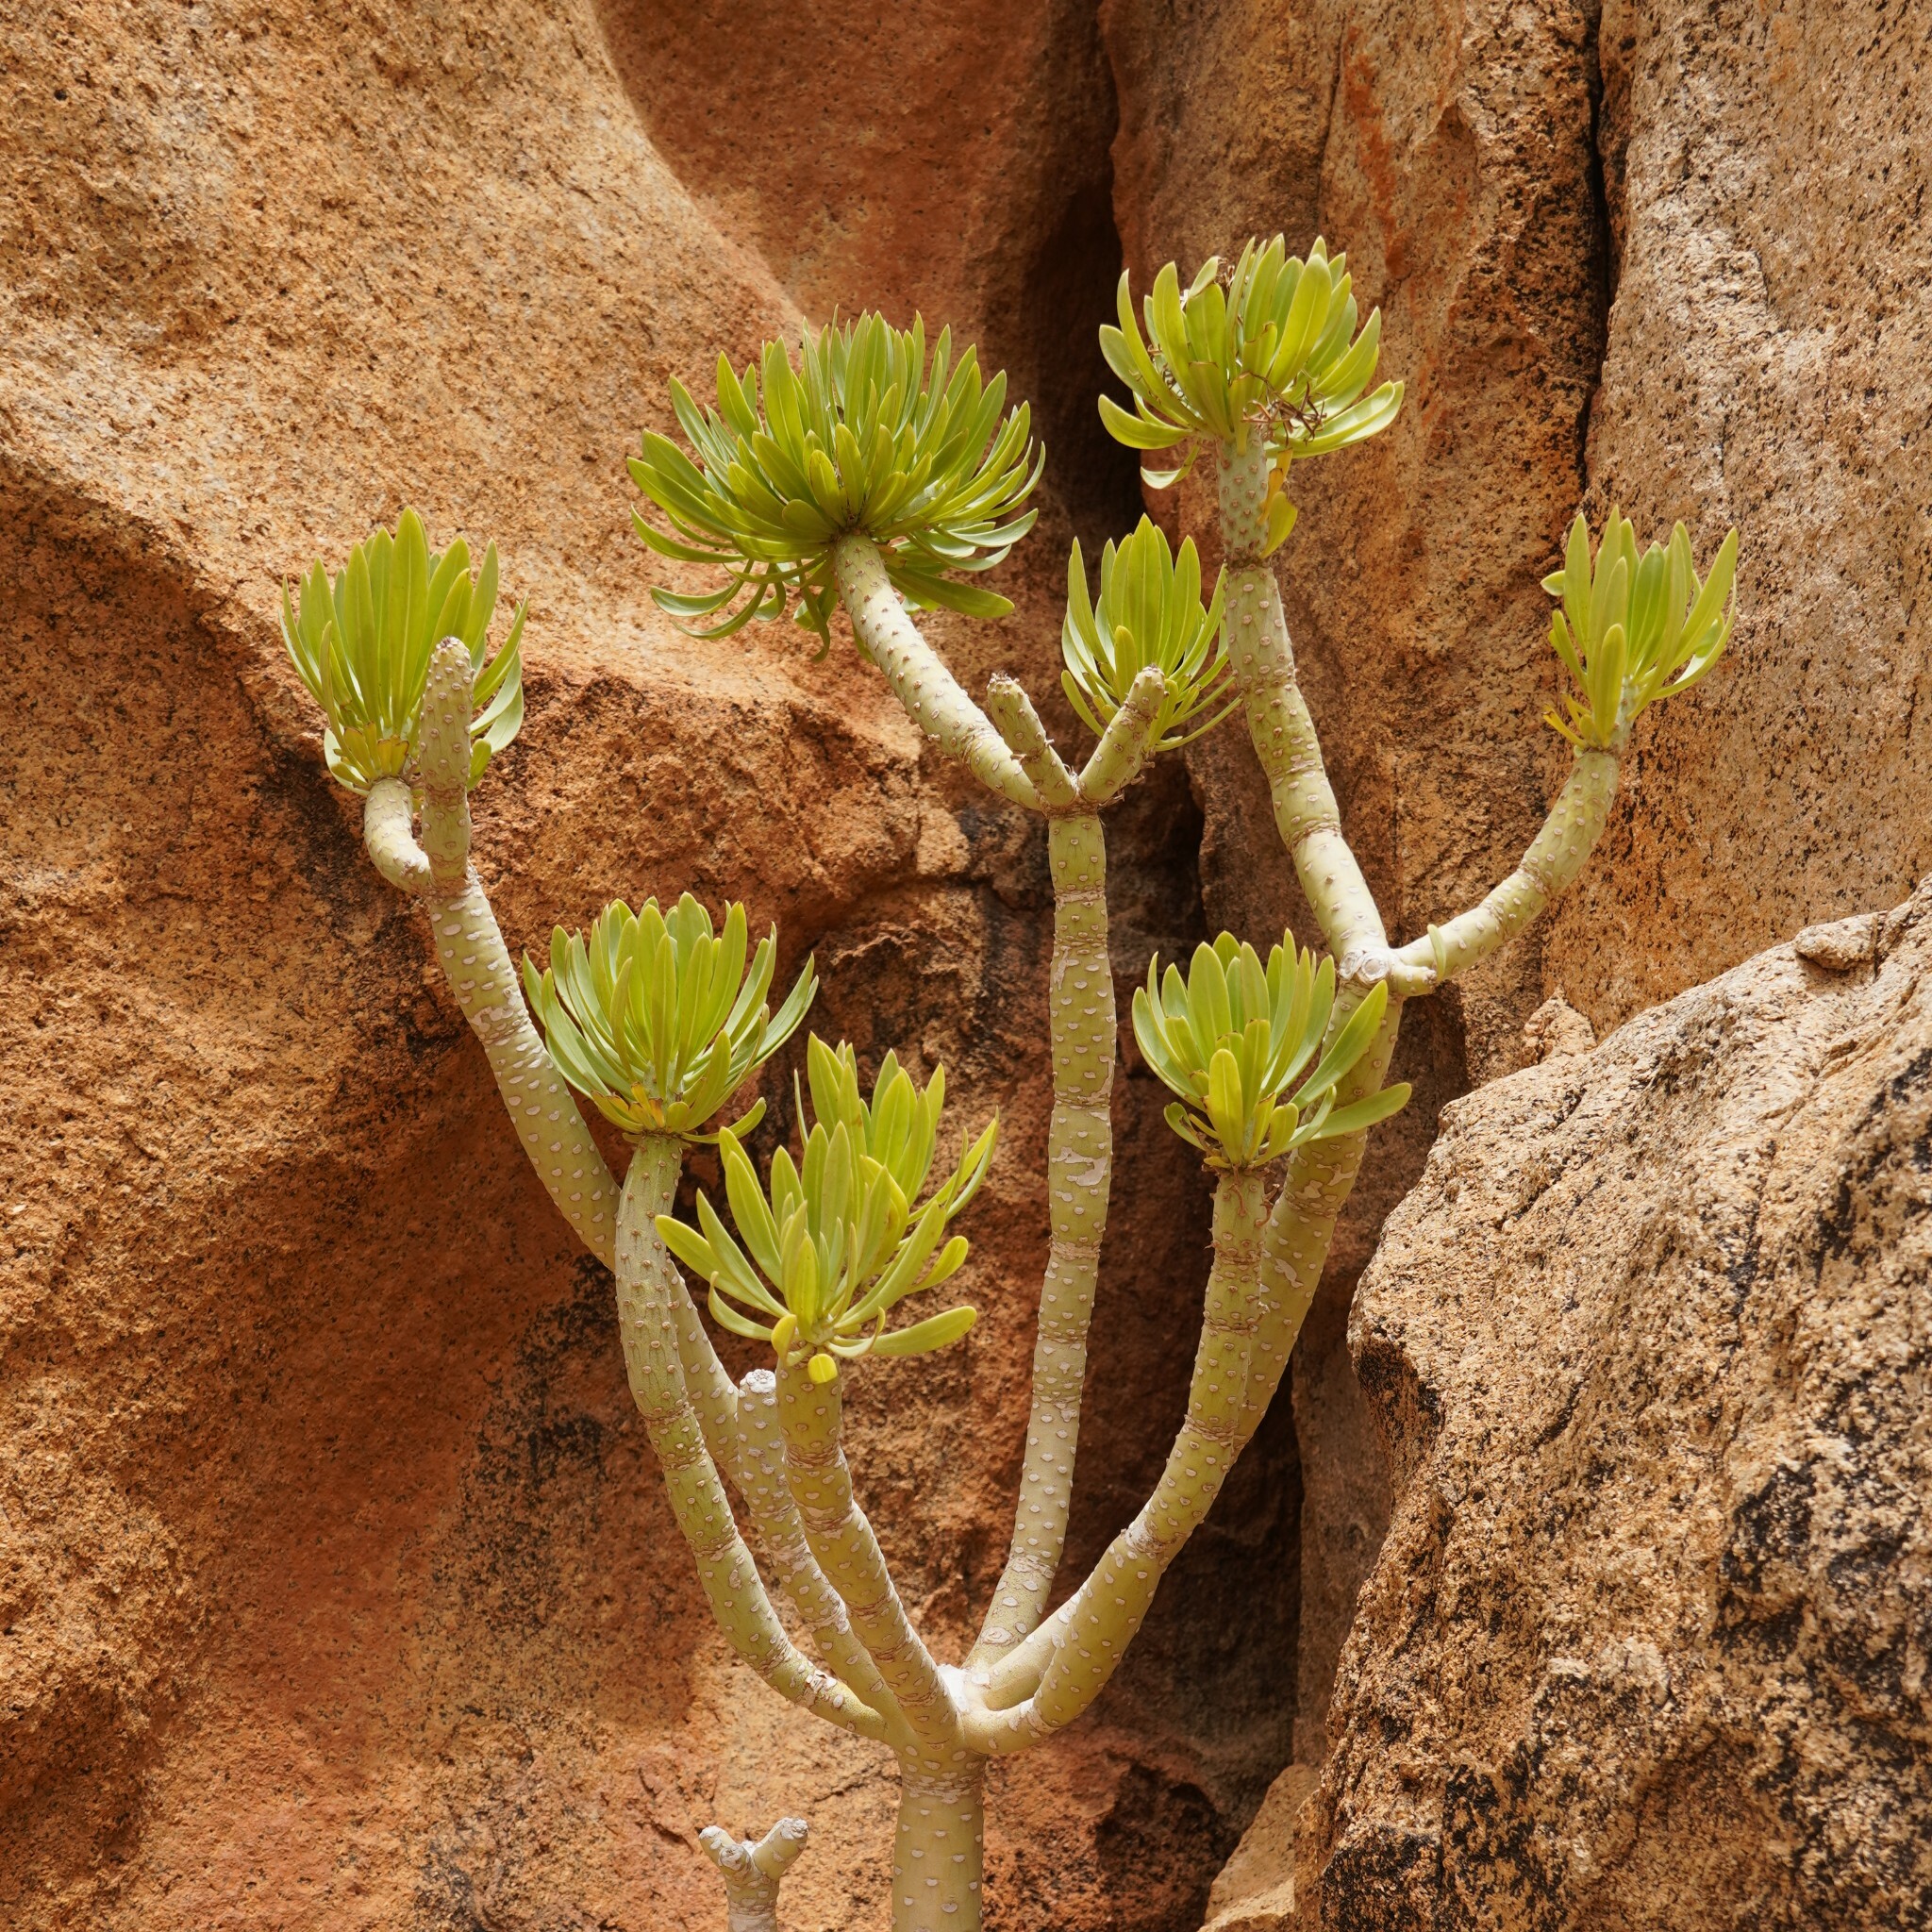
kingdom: Plantae
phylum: Tracheophyta
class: Magnoliopsida
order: Asterales
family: Asteraceae
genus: Kleinia
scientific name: Kleinia neriifolia
